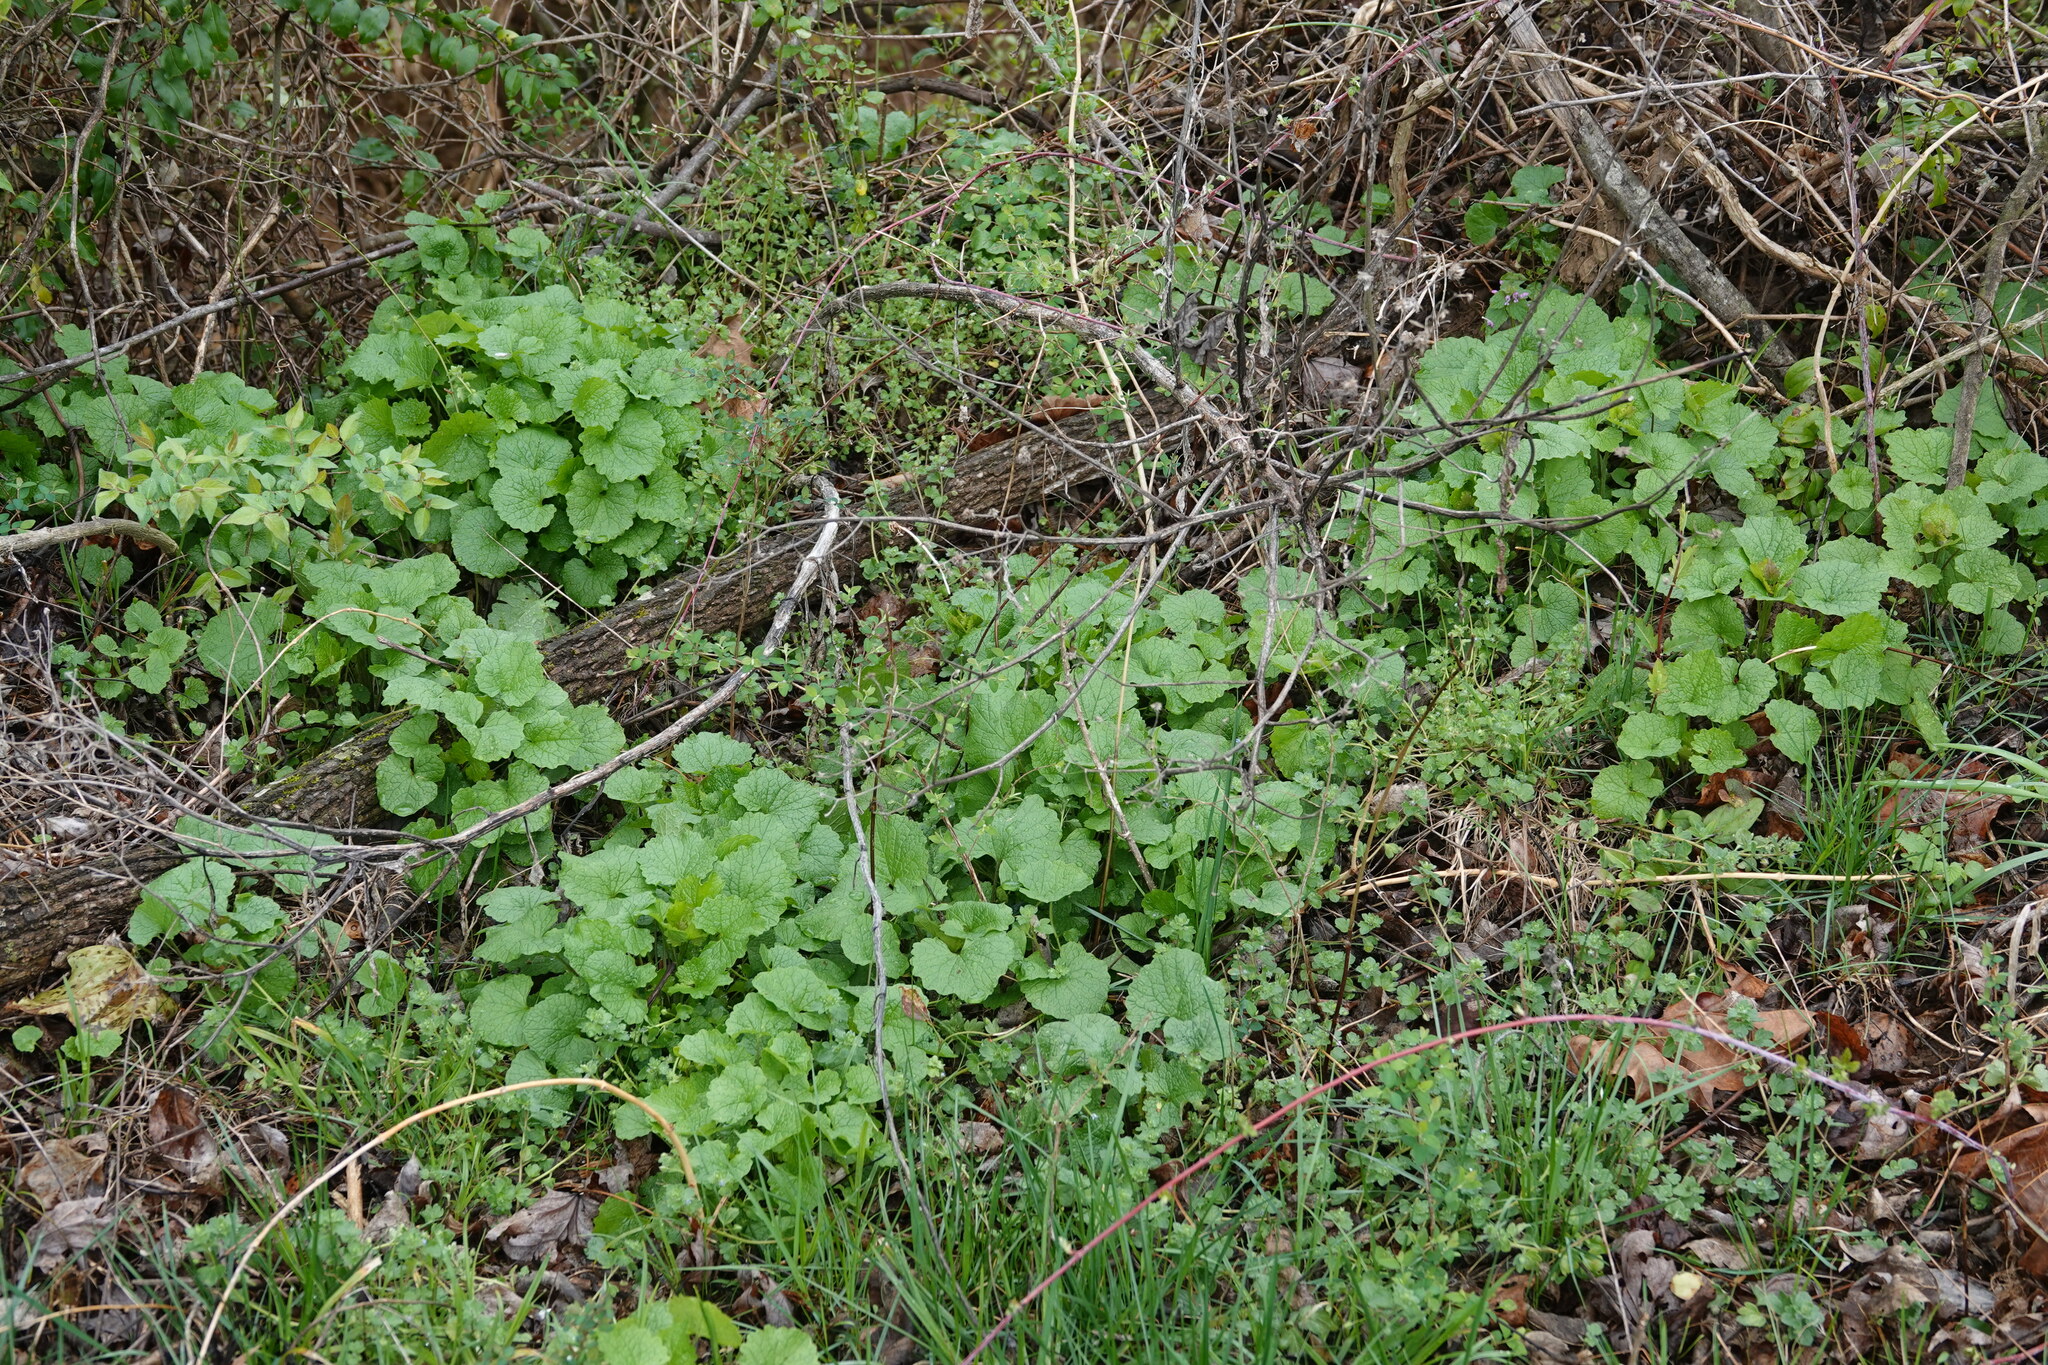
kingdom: Plantae
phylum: Tracheophyta
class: Magnoliopsida
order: Brassicales
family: Brassicaceae
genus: Alliaria
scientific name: Alliaria petiolata
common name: Garlic mustard
